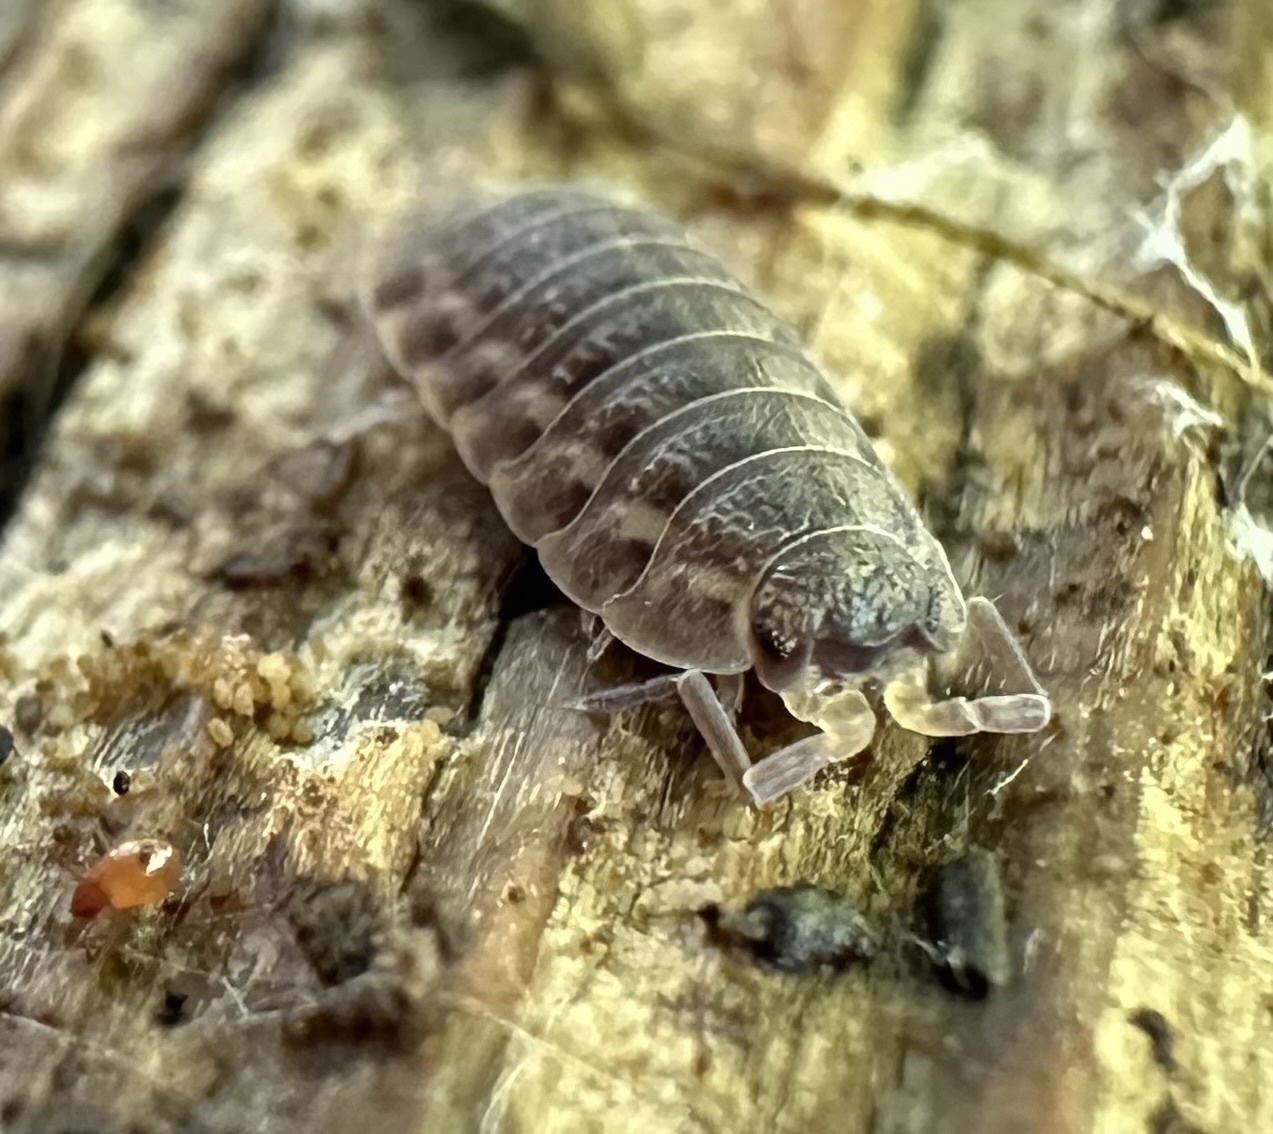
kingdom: Animalia
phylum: Arthropoda
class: Malacostraca
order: Isopoda
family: Trachelipodidae
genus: Trachelipus
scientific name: Trachelipus rathkii
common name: Isopod
